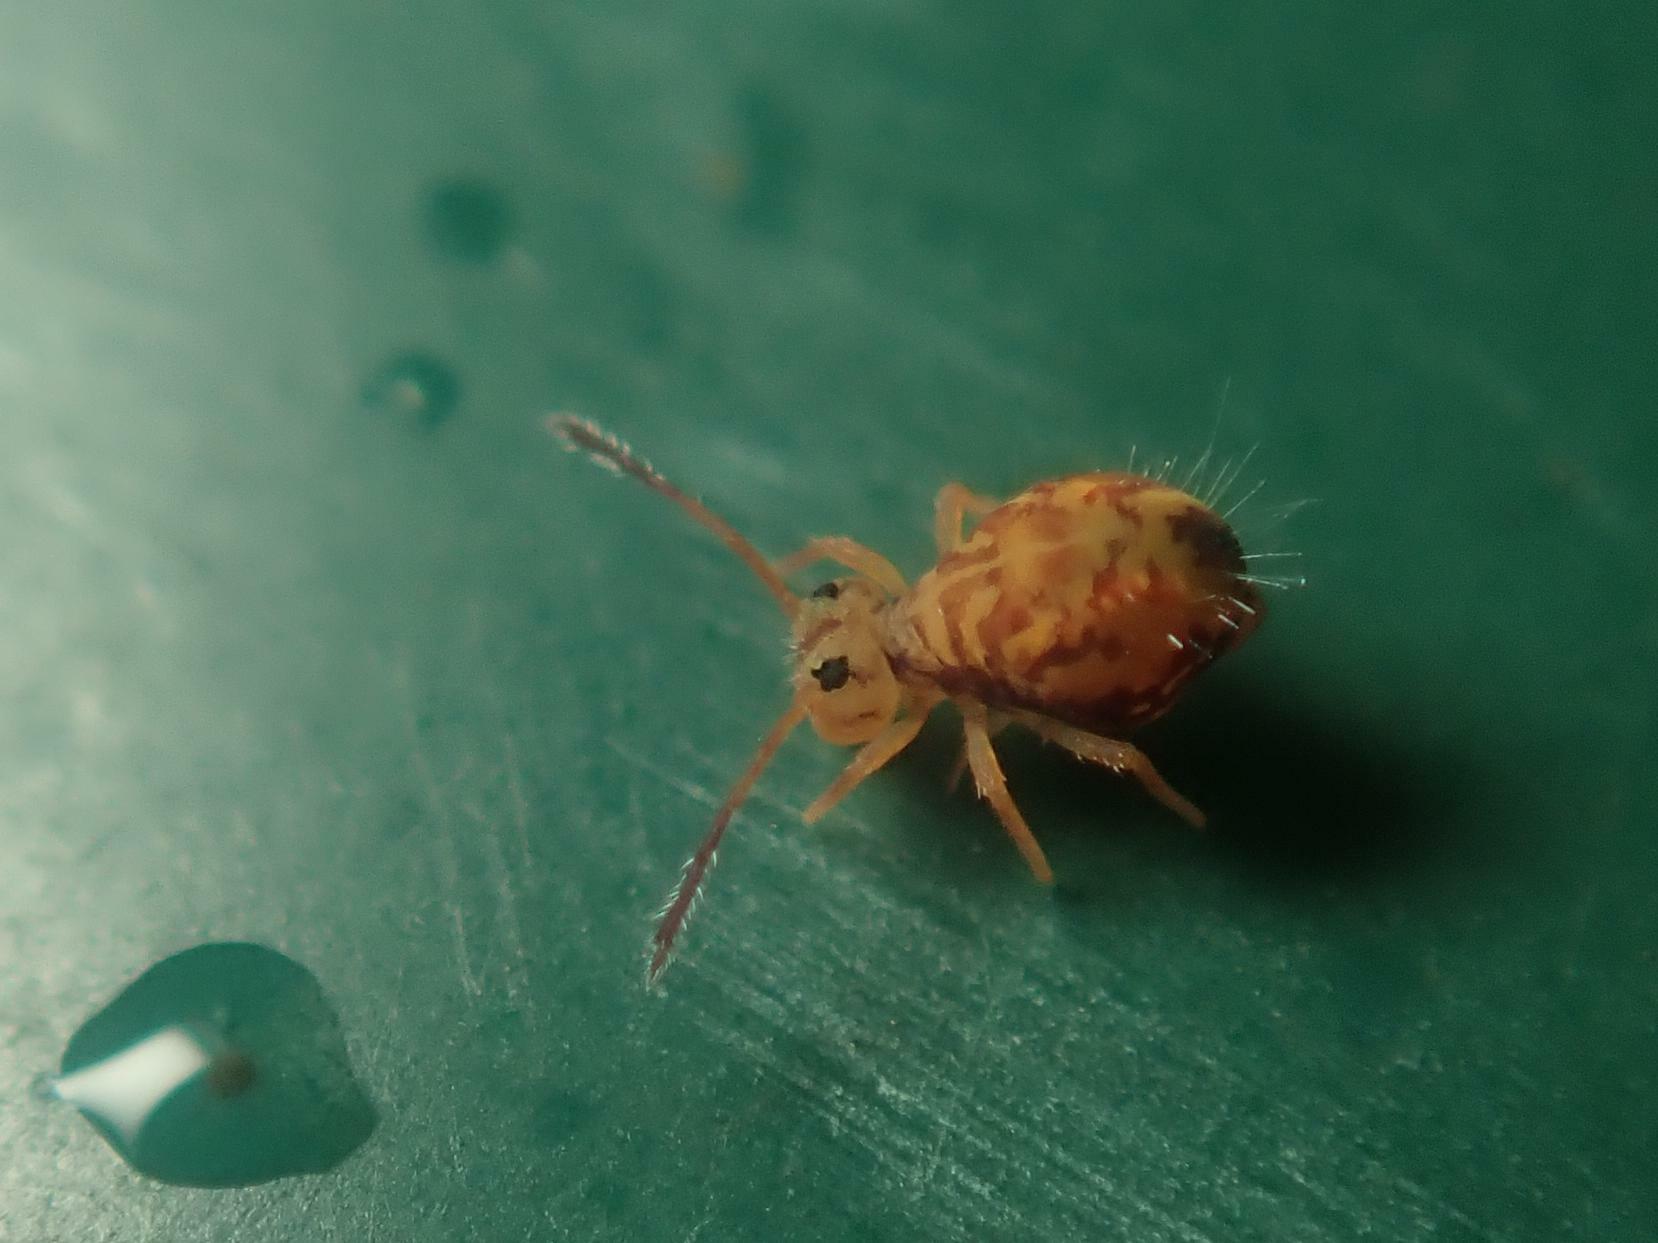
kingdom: Animalia
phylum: Arthropoda
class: Collembola
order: Symphypleona
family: Dicyrtomidae
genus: Dicyrtomina
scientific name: Dicyrtomina ornata
